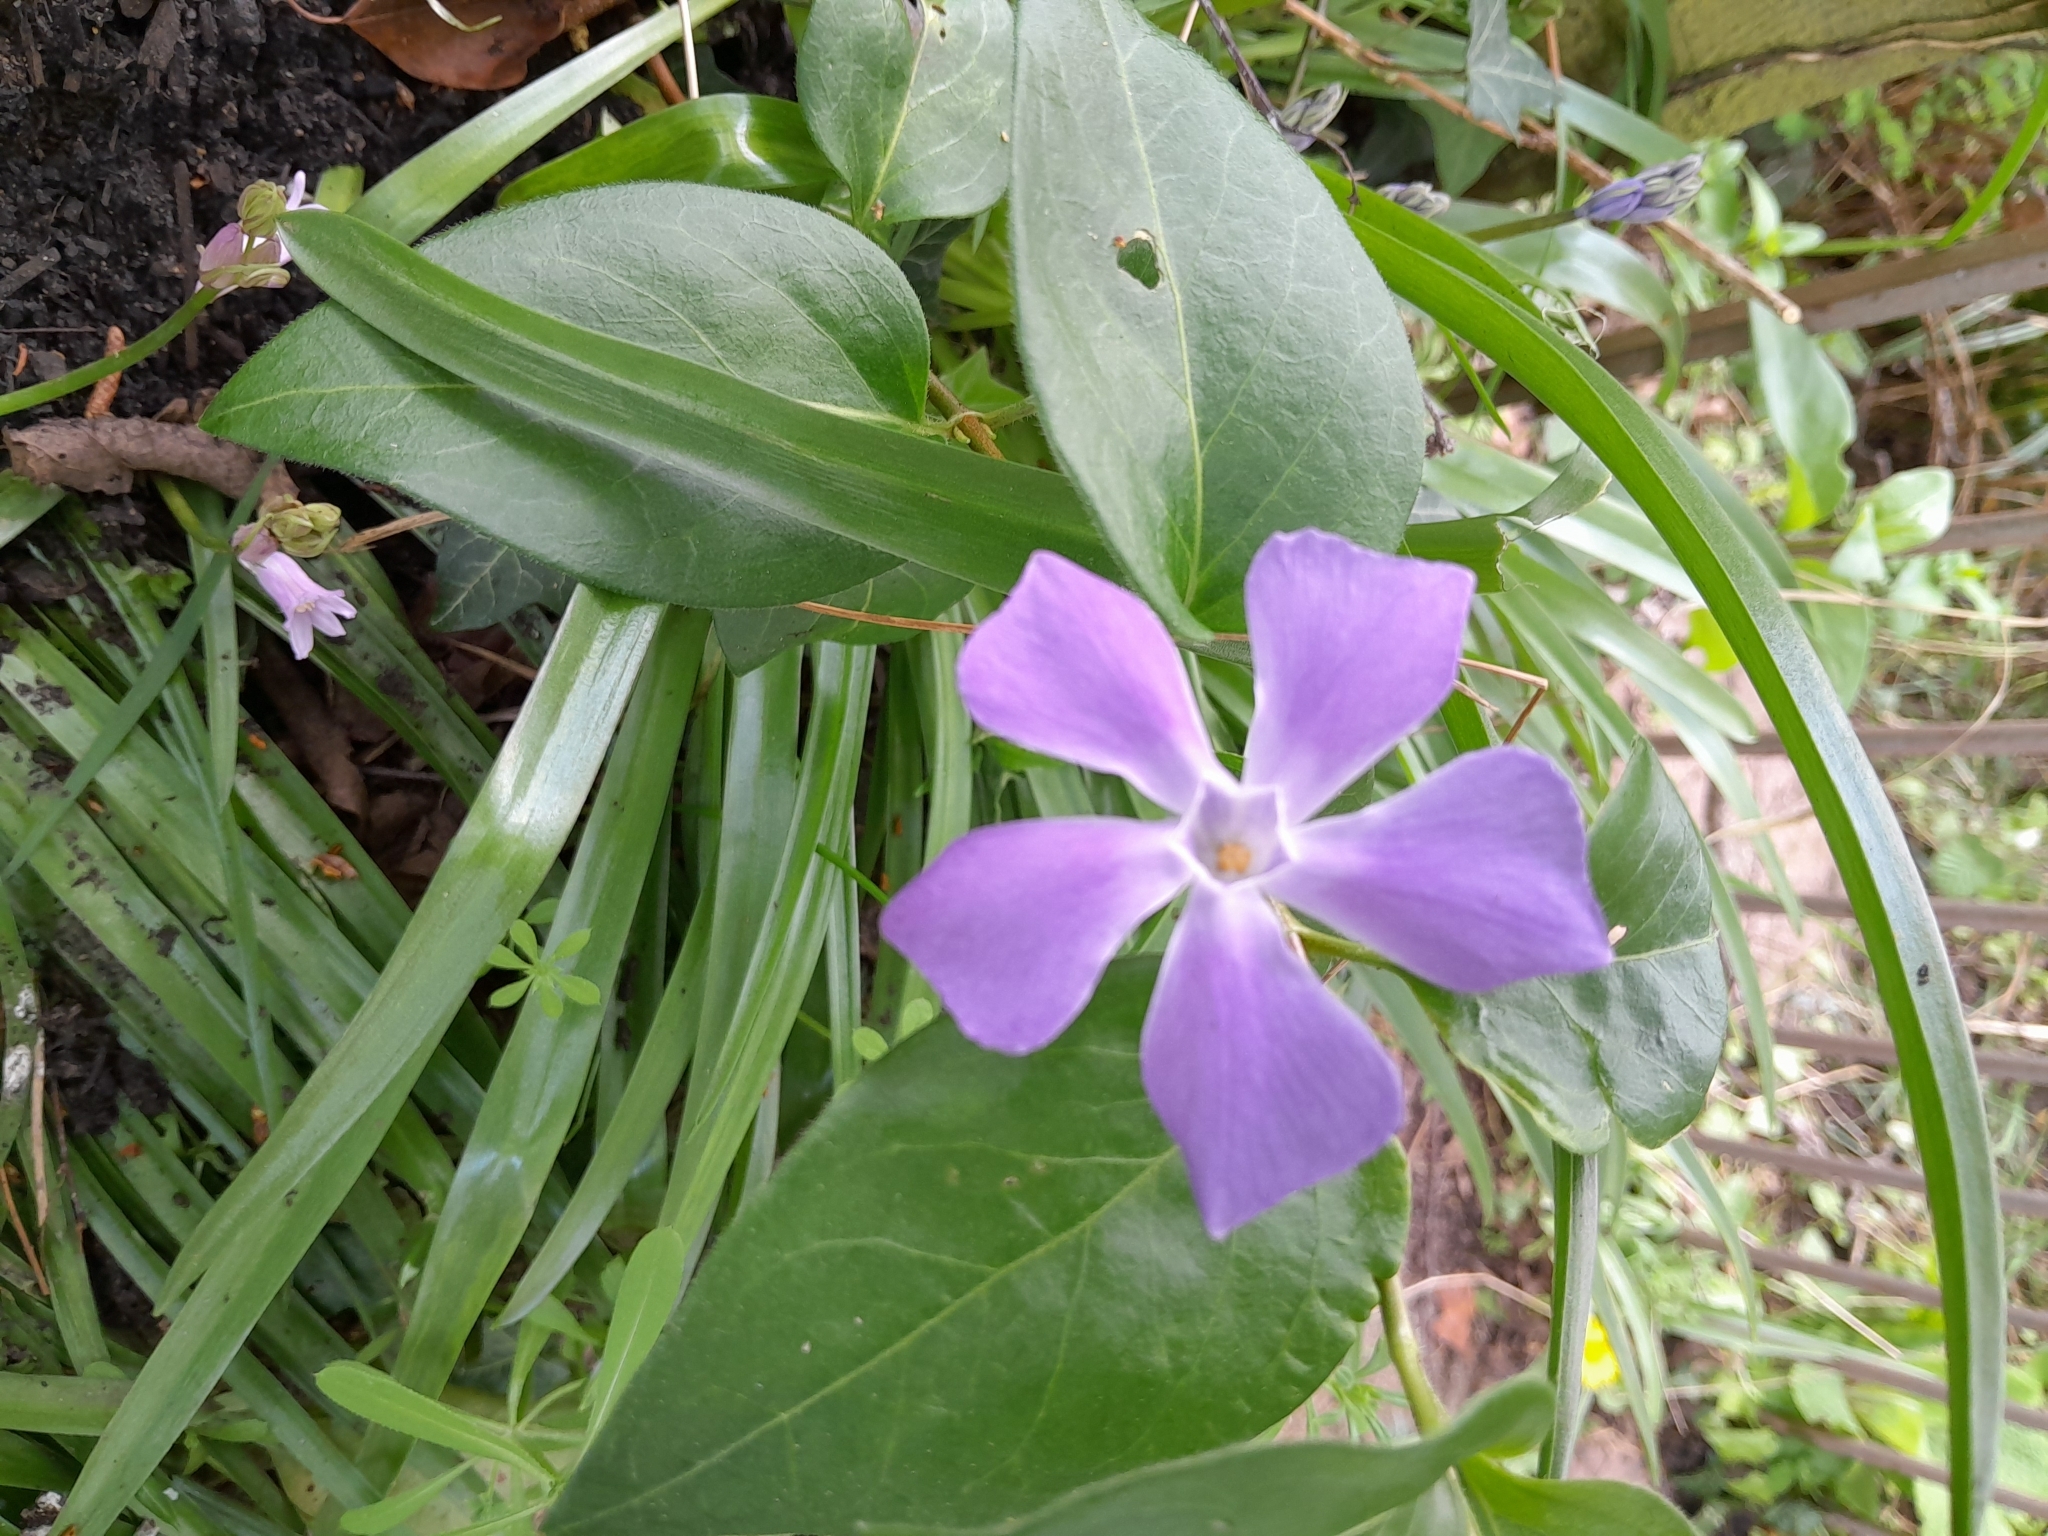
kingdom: Plantae
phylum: Tracheophyta
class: Magnoliopsida
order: Gentianales
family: Apocynaceae
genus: Vinca
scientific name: Vinca major
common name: Greater periwinkle
